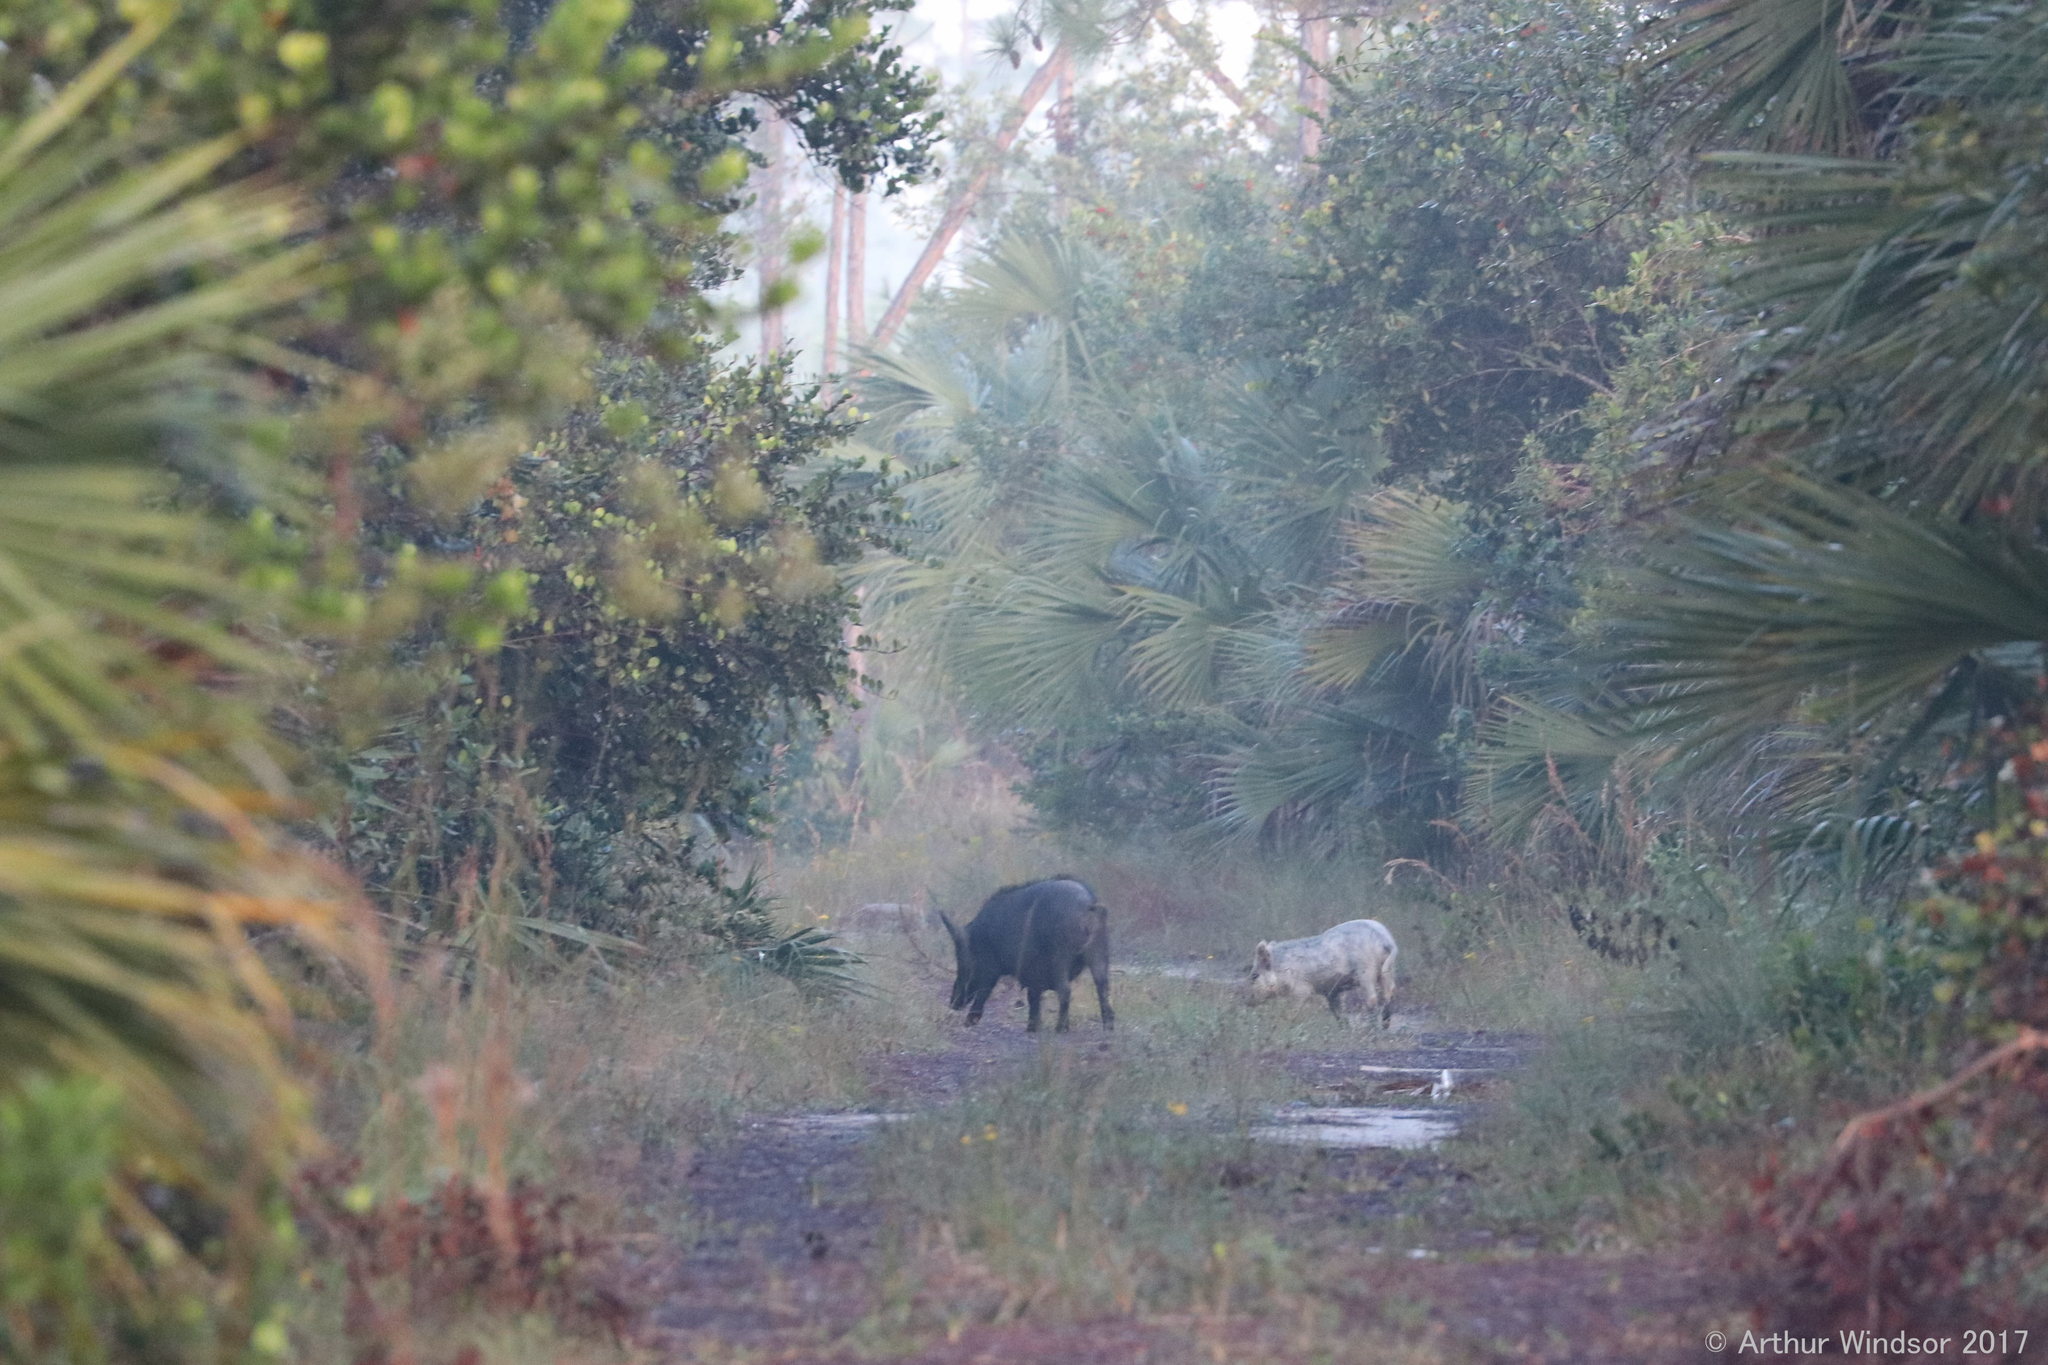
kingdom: Animalia
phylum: Chordata
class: Mammalia
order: Artiodactyla
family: Suidae
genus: Sus
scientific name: Sus scrofa
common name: Wild boar
